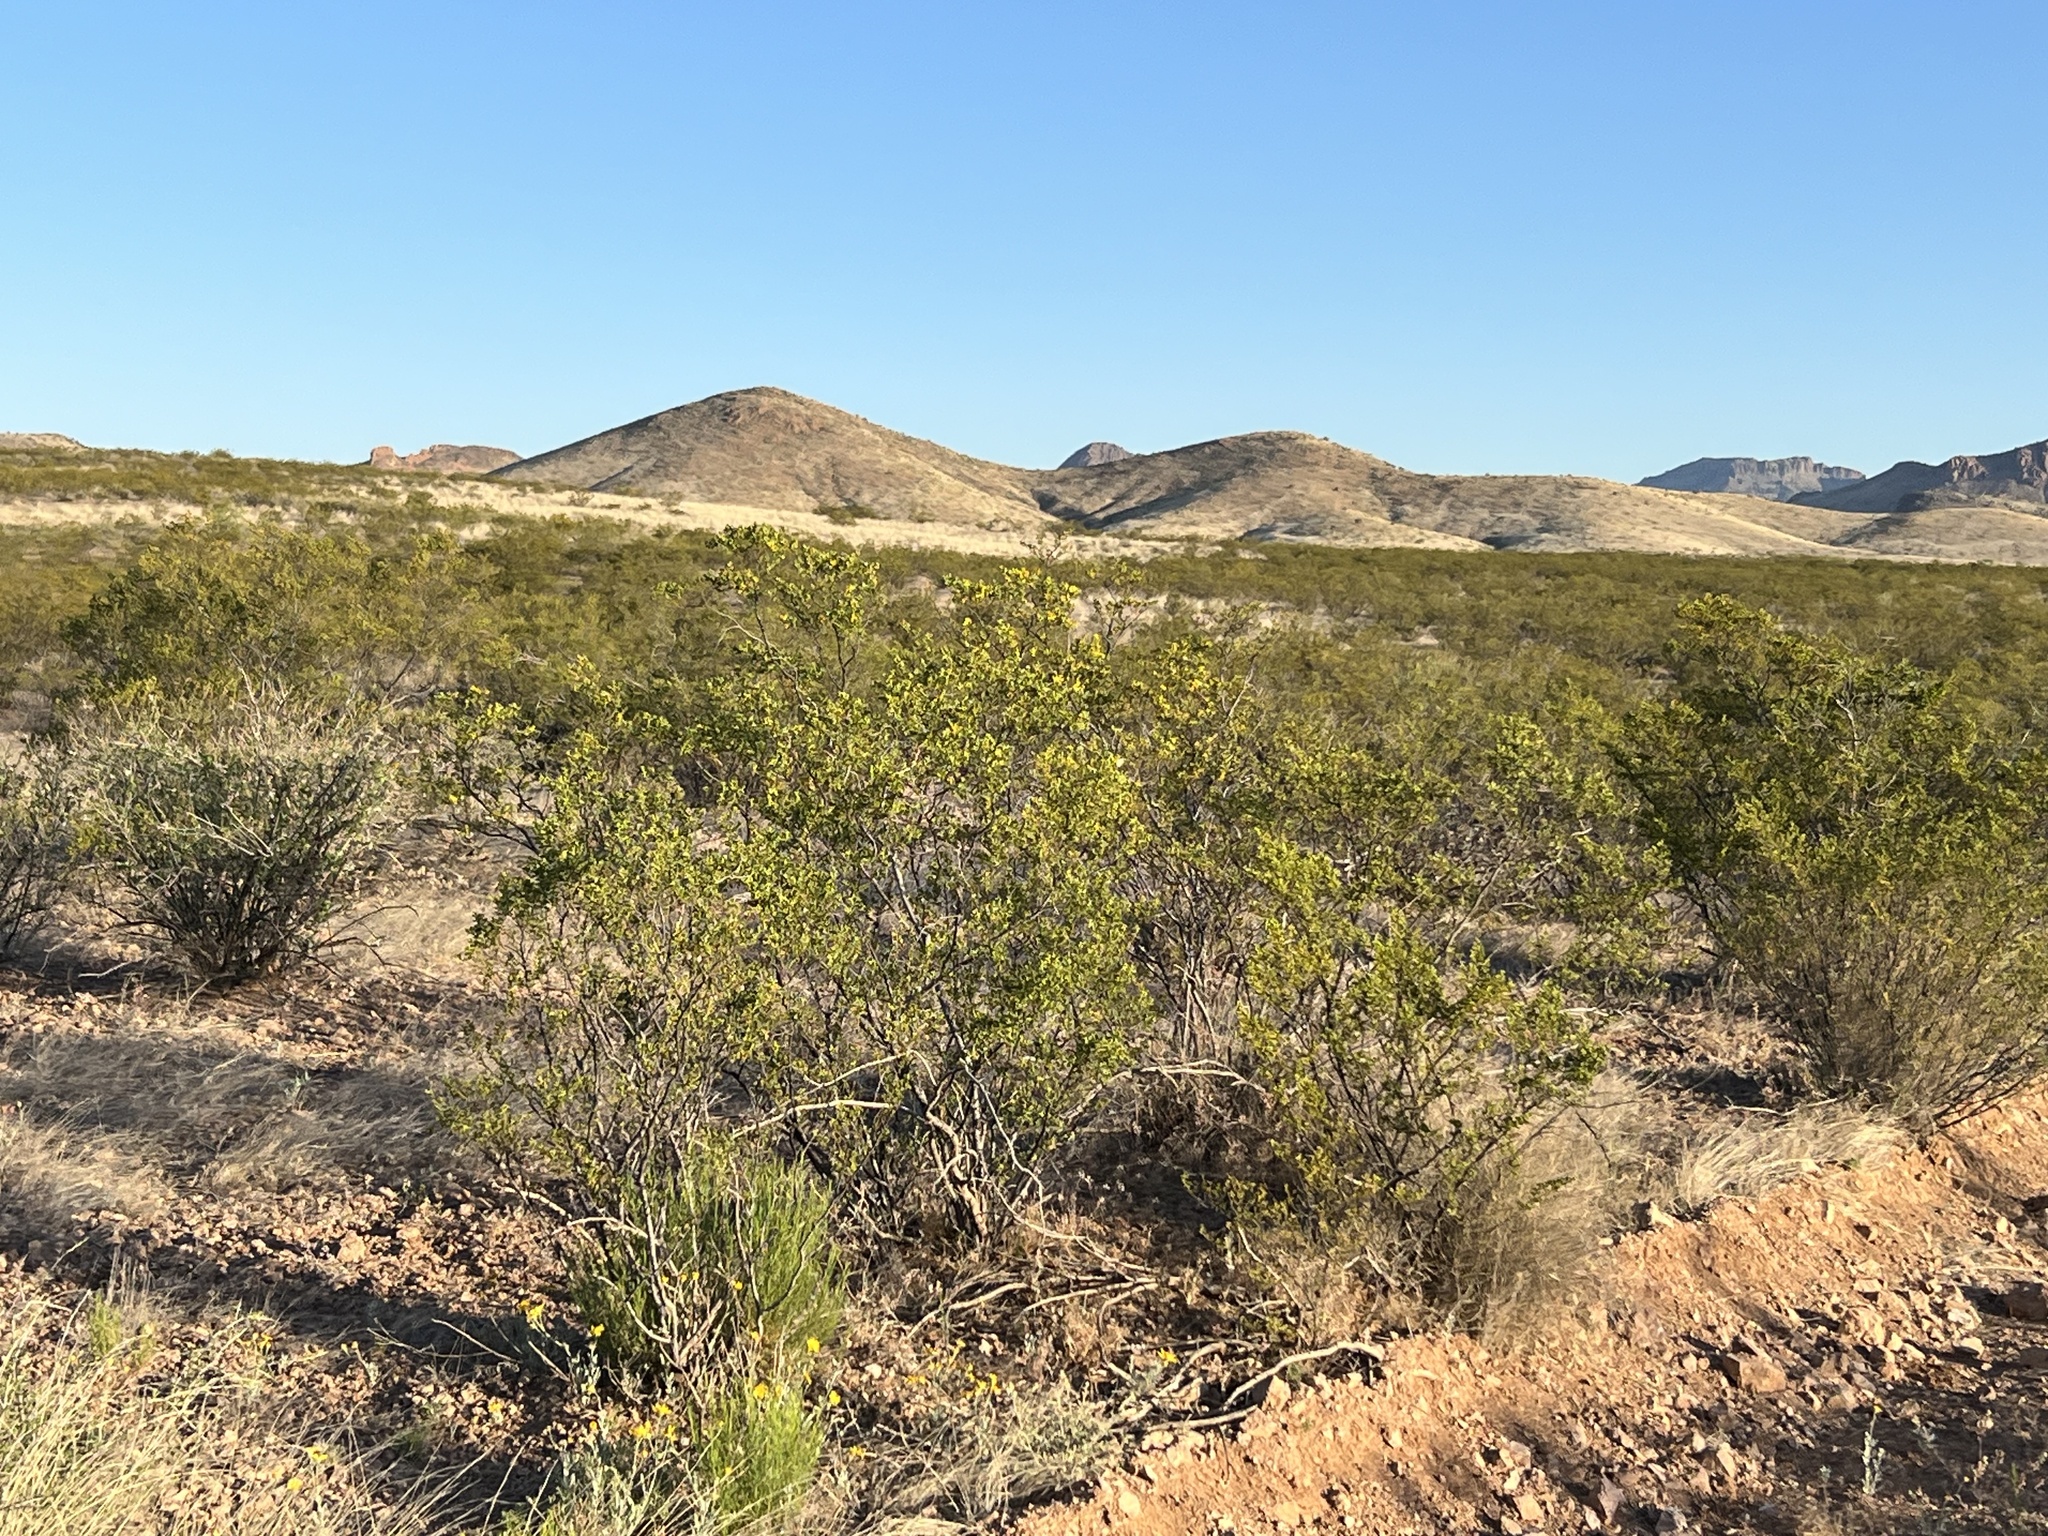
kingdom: Plantae
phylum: Tracheophyta
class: Magnoliopsida
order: Zygophyllales
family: Zygophyllaceae
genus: Larrea
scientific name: Larrea tridentata
